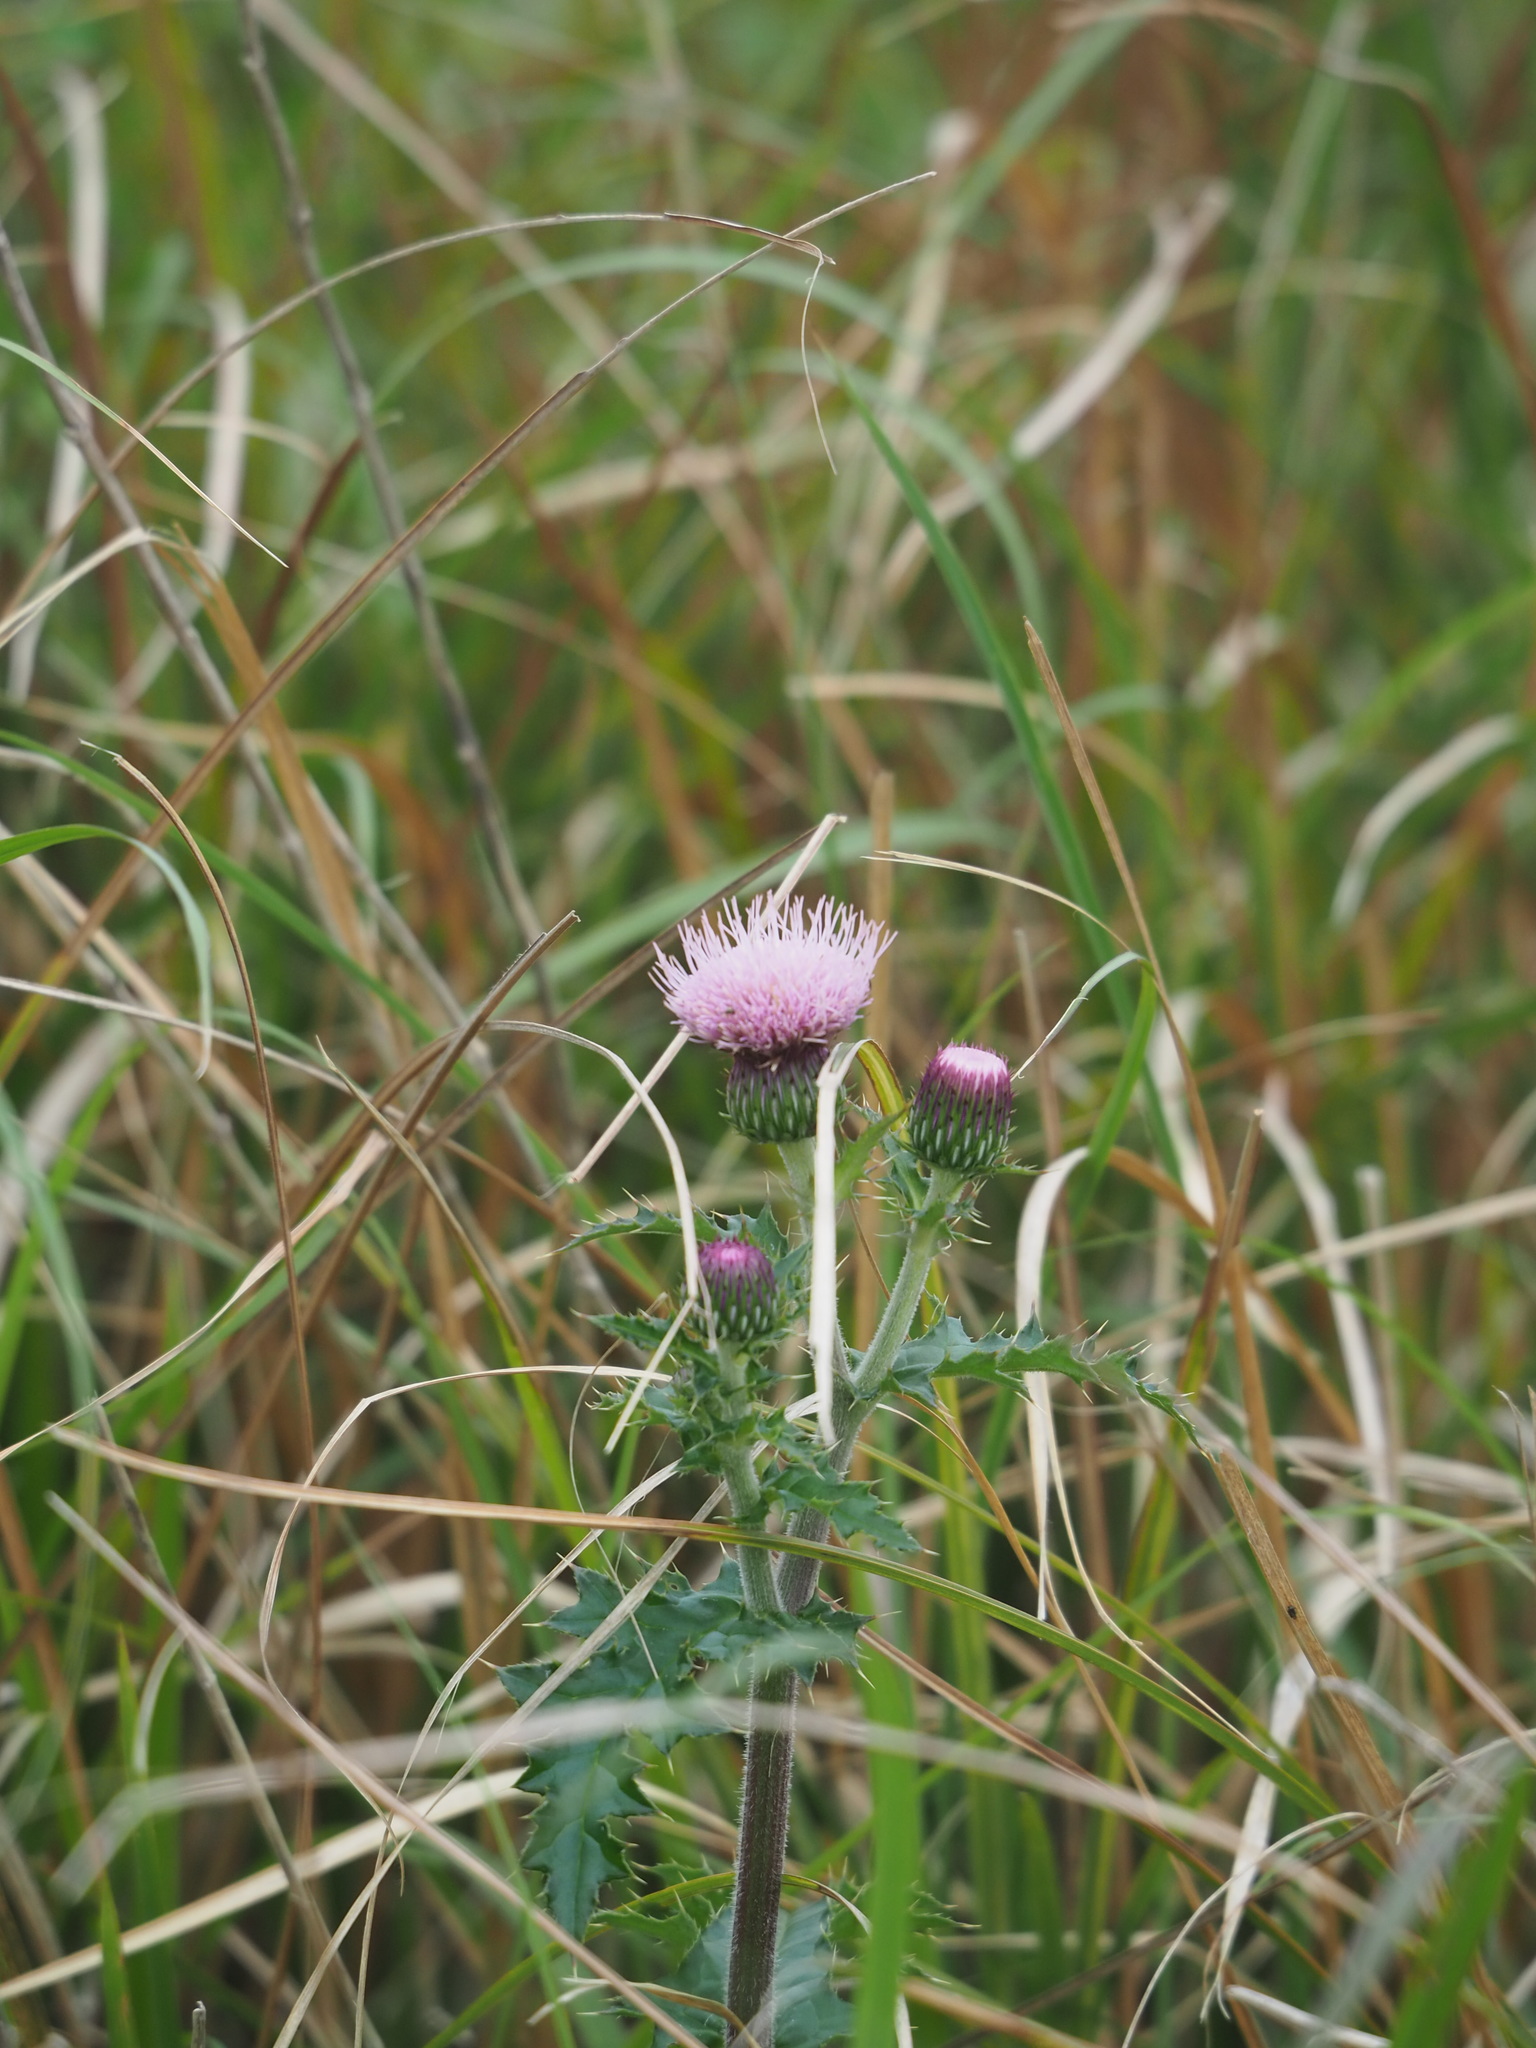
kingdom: Plantae
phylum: Tracheophyta
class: Magnoliopsida
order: Asterales
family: Asteraceae
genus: Cirsium
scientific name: Cirsium japonicum
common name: Japanese thistle
